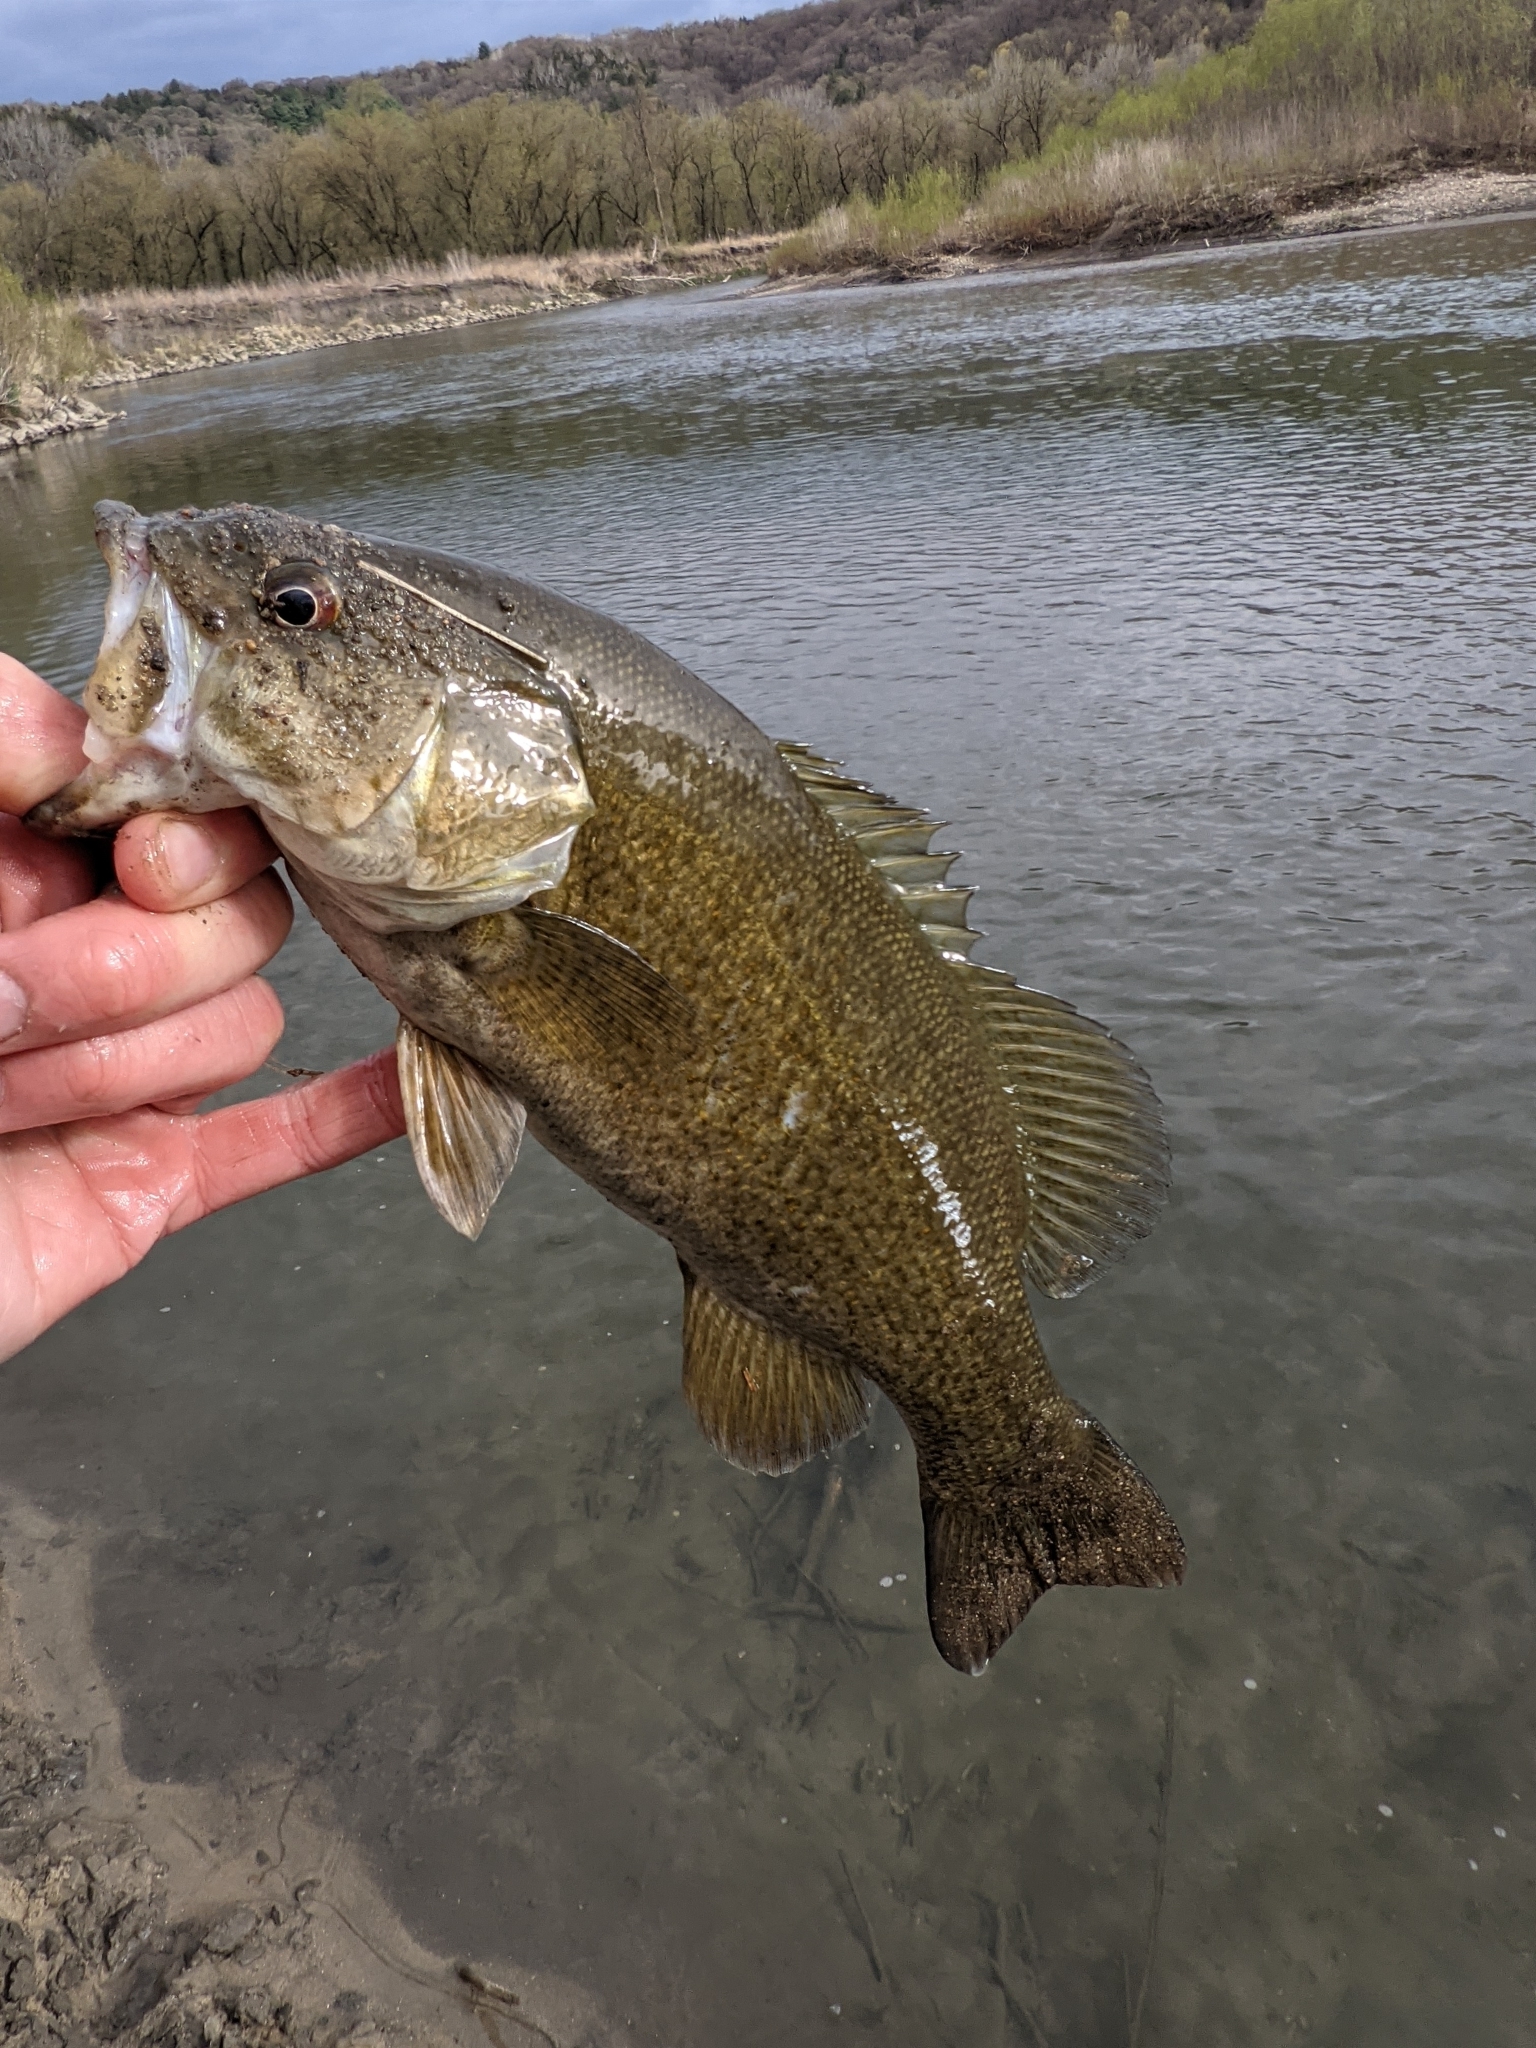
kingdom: Animalia
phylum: Chordata
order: Perciformes
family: Centrarchidae
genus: Micropterus
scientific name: Micropterus dolomieu
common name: Smallmouth bass
